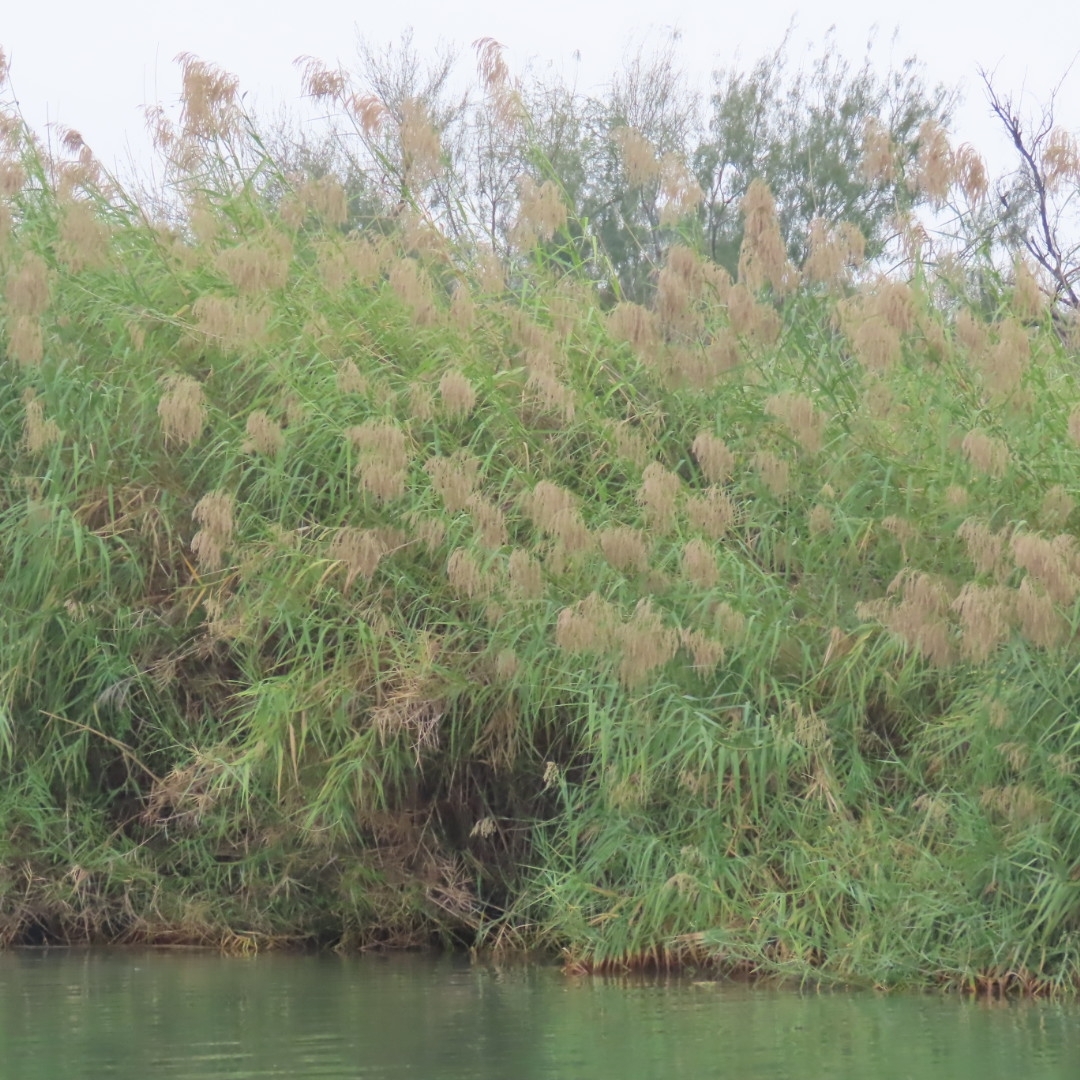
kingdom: Plantae
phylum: Tracheophyta
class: Liliopsida
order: Poales
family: Poaceae
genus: Phragmites
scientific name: Phragmites australis
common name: Common reed
